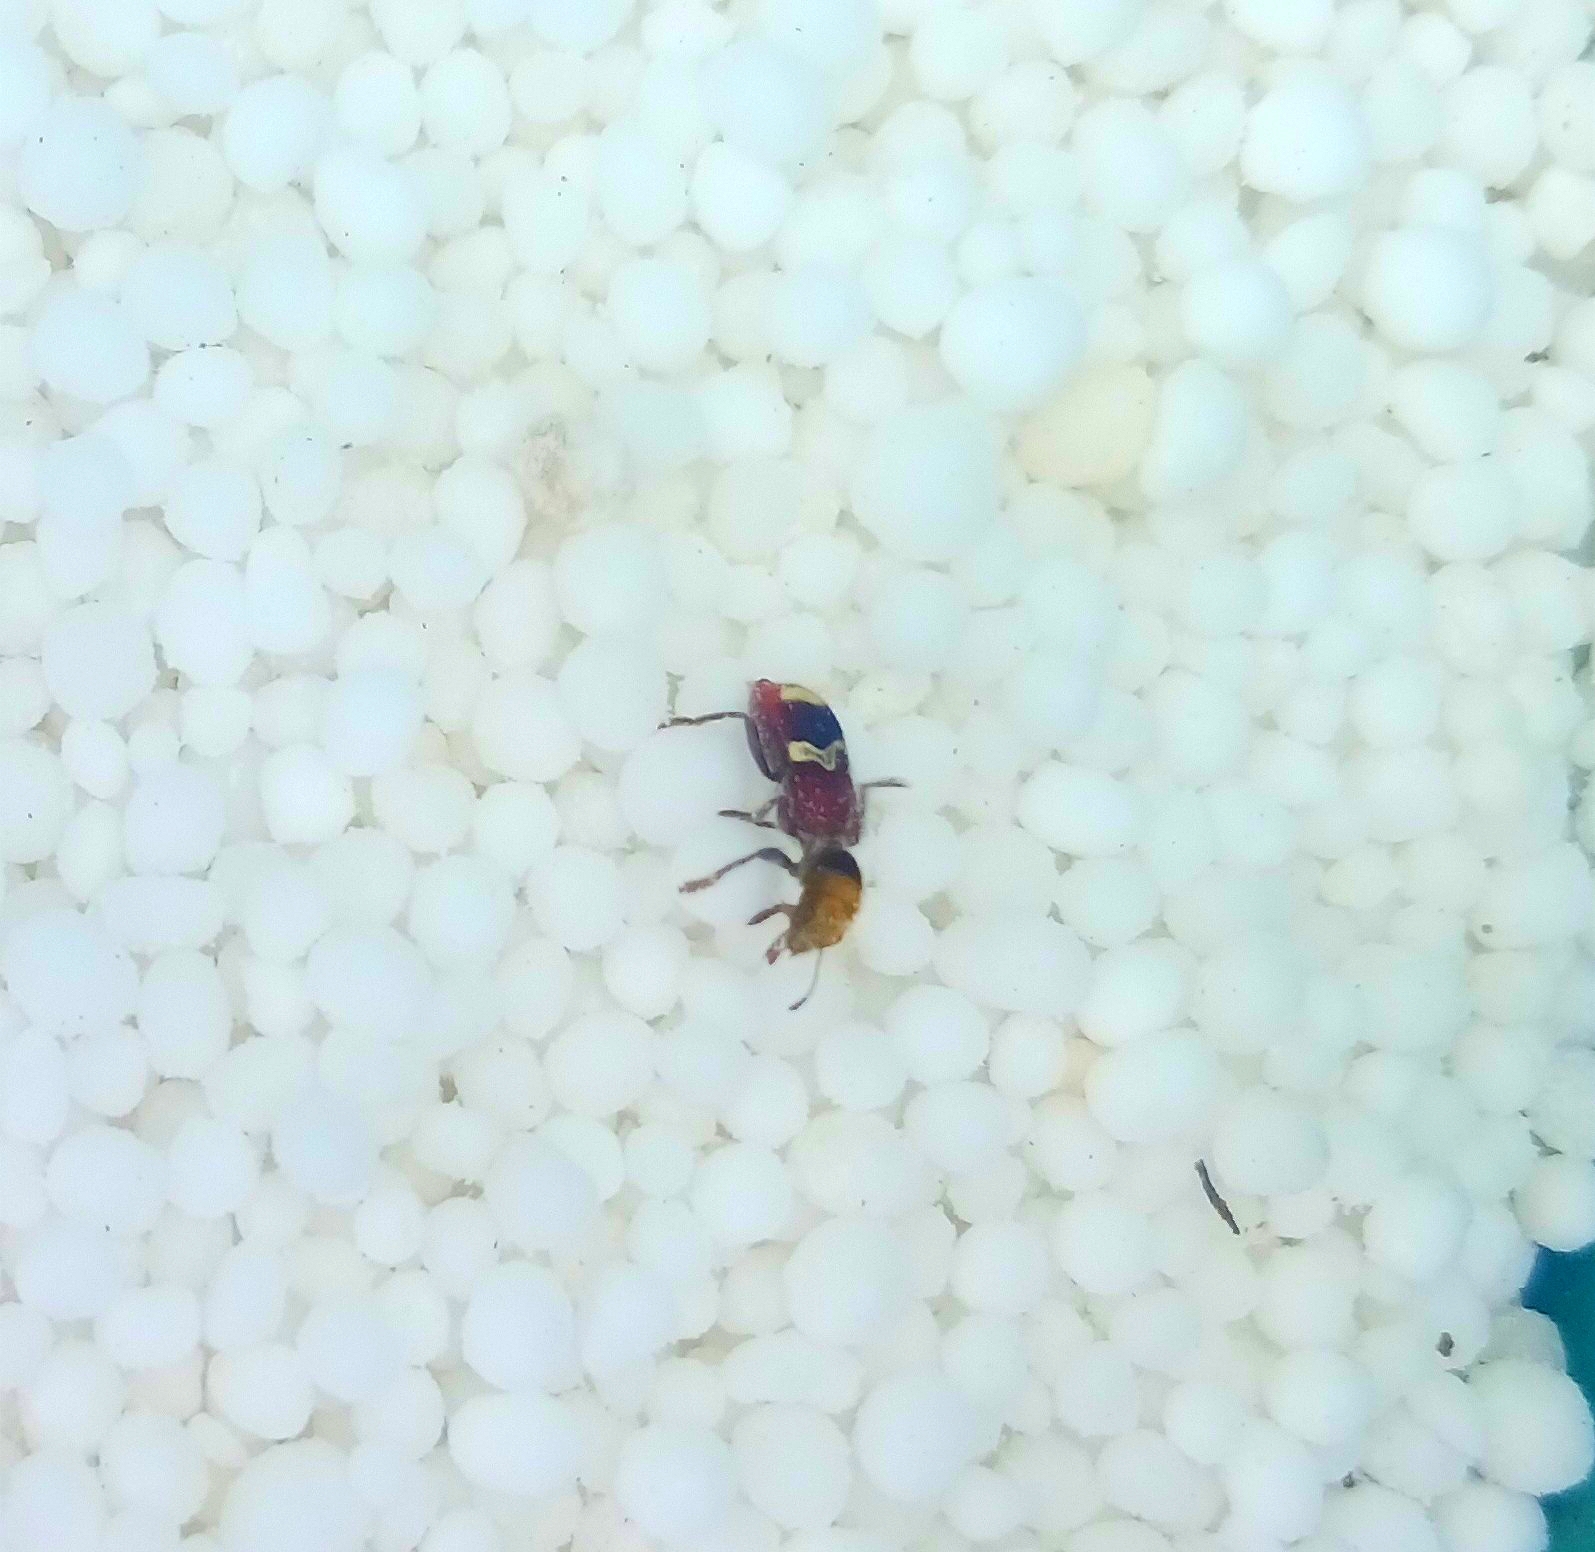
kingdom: Animalia
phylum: Arthropoda
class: Insecta
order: Coleoptera
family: Cleridae
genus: Enoclerus
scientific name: Enoclerus bombycinus
